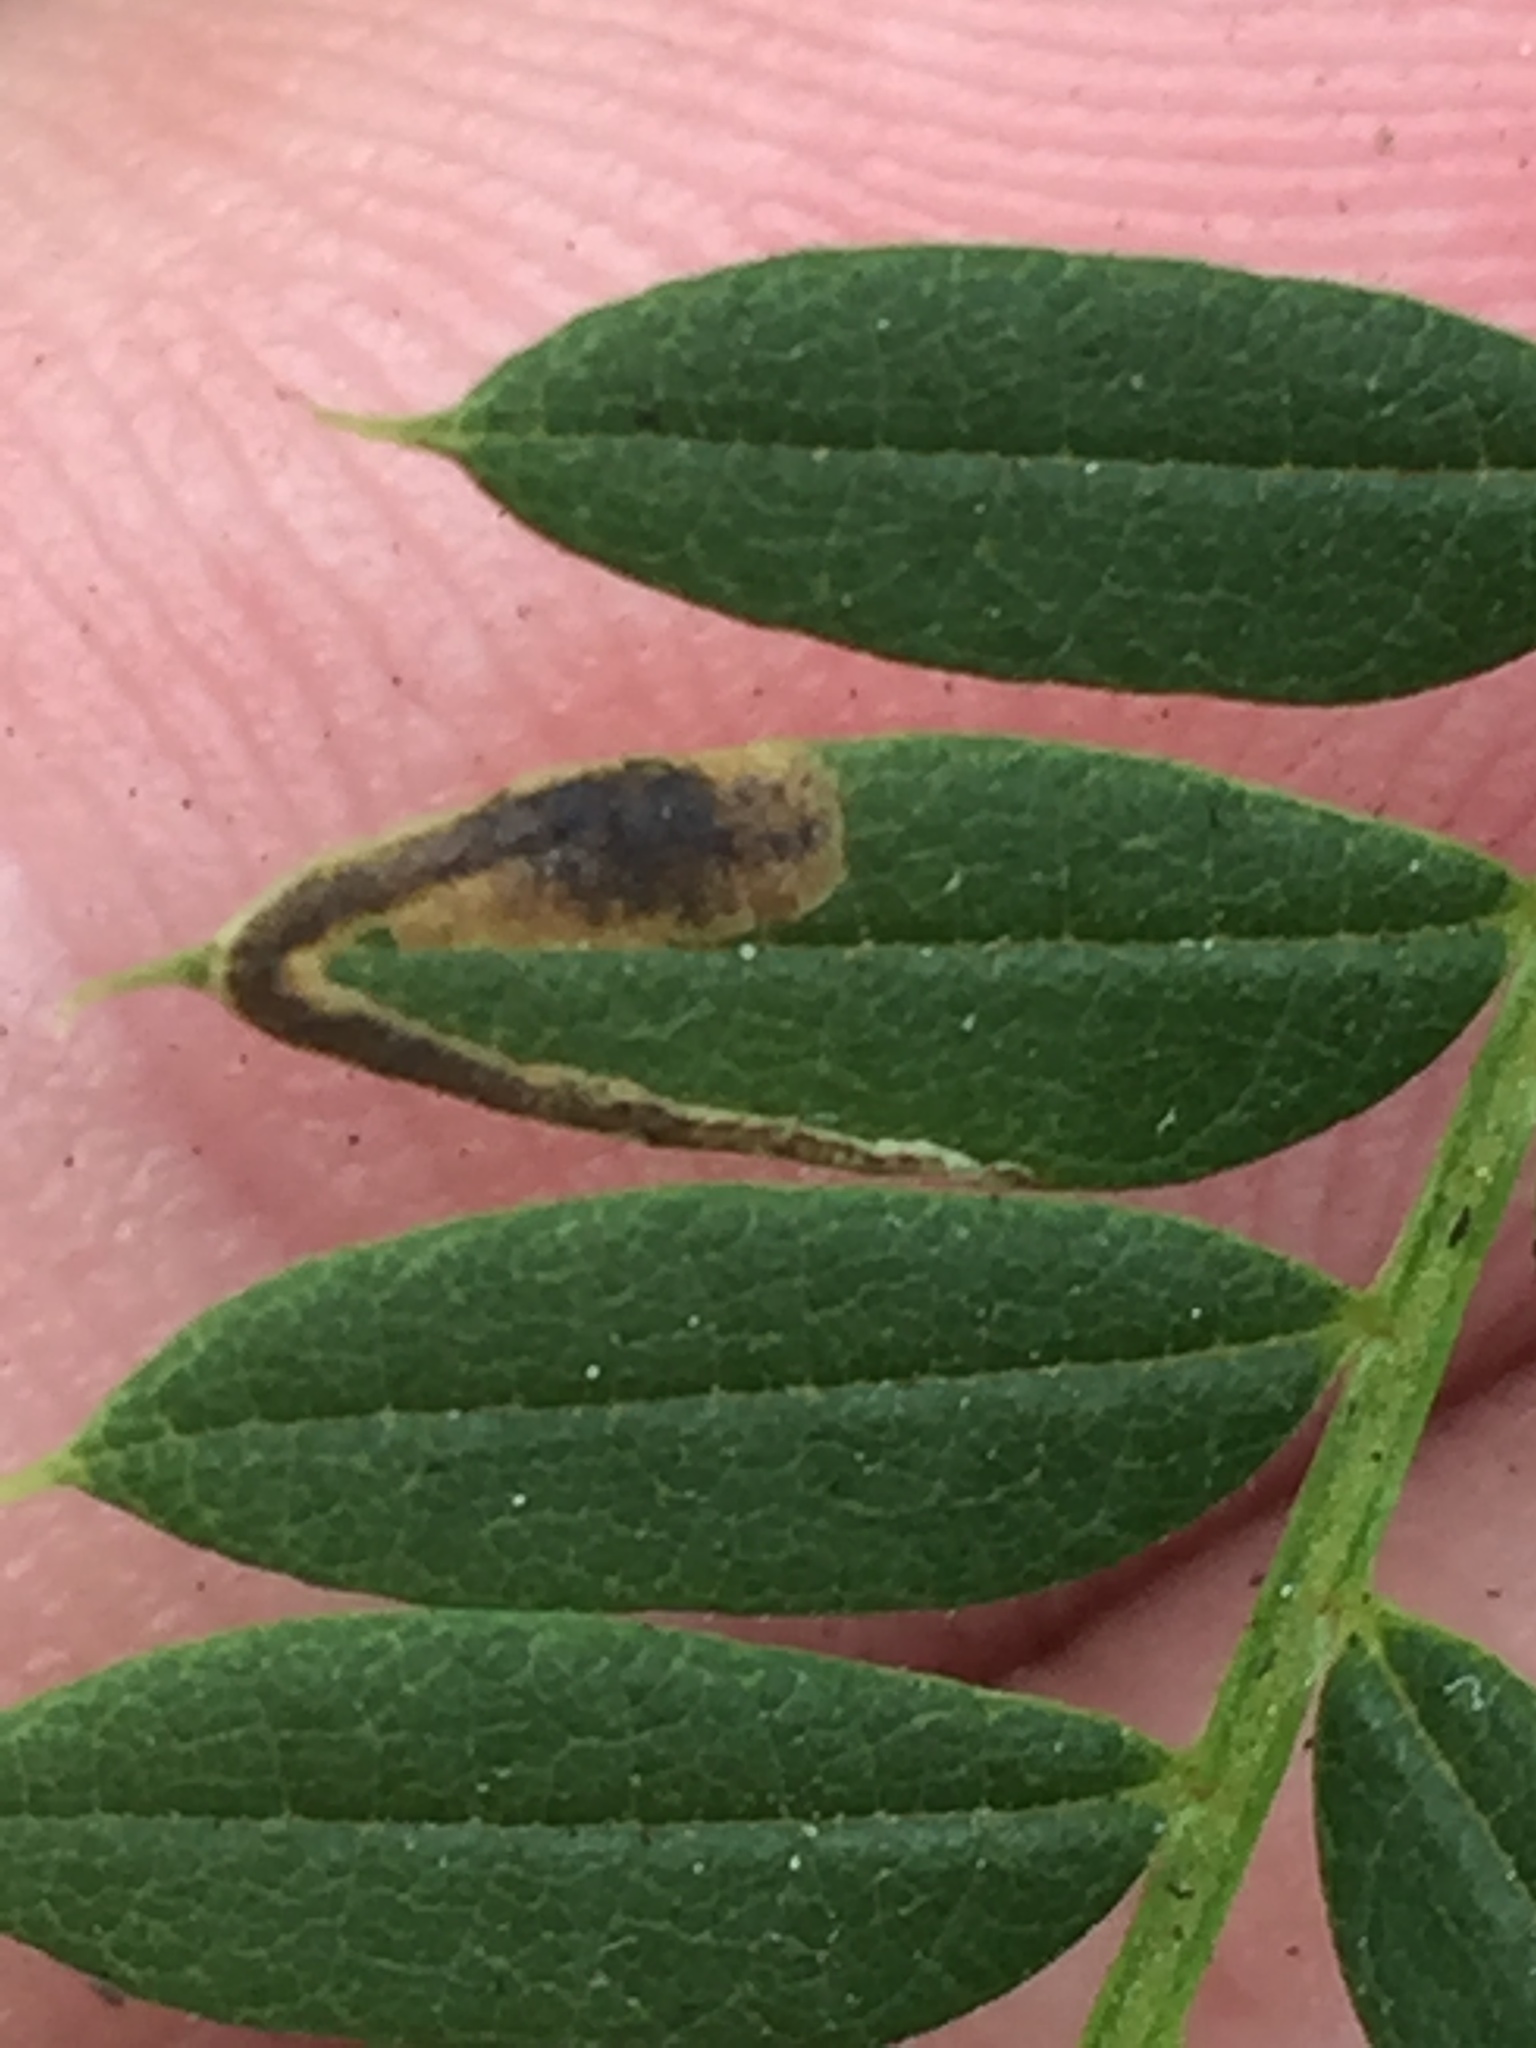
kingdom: Animalia
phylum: Arthropoda
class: Insecta
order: Diptera
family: Agromyzidae
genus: Phytoliriomyza
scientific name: Phytoliriomyza jacarandae
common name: Jacaranda leaf miner
